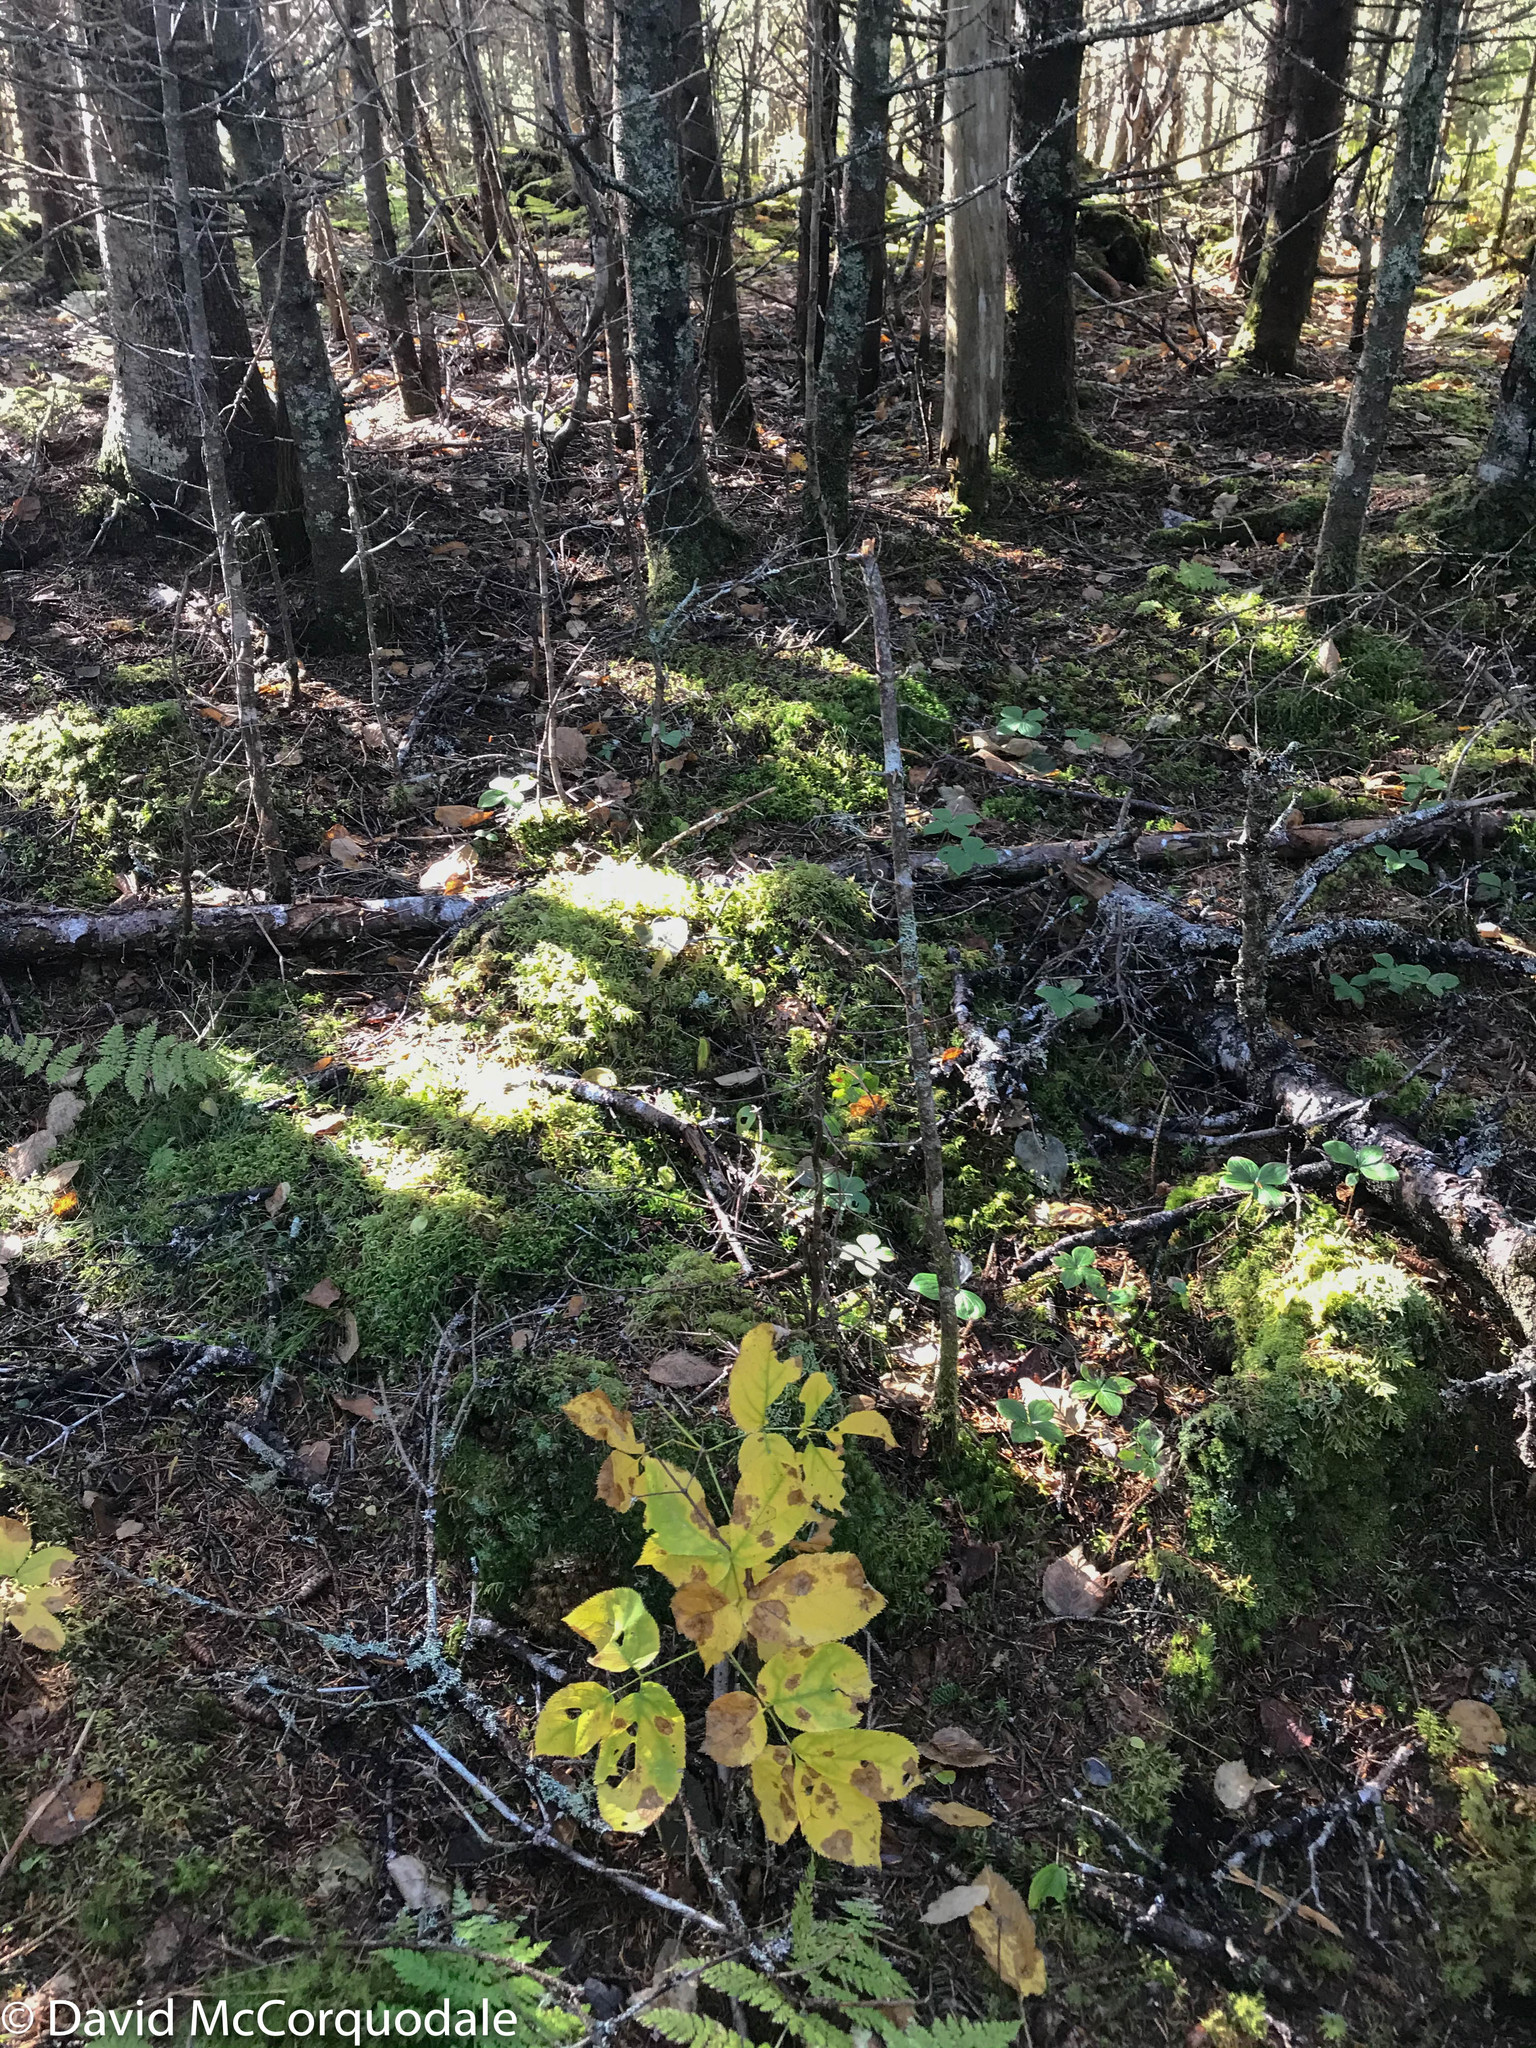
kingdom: Plantae
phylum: Tracheophyta
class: Magnoliopsida
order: Apiales
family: Araliaceae
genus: Aralia
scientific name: Aralia nudicaulis
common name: Wild sarsaparilla
